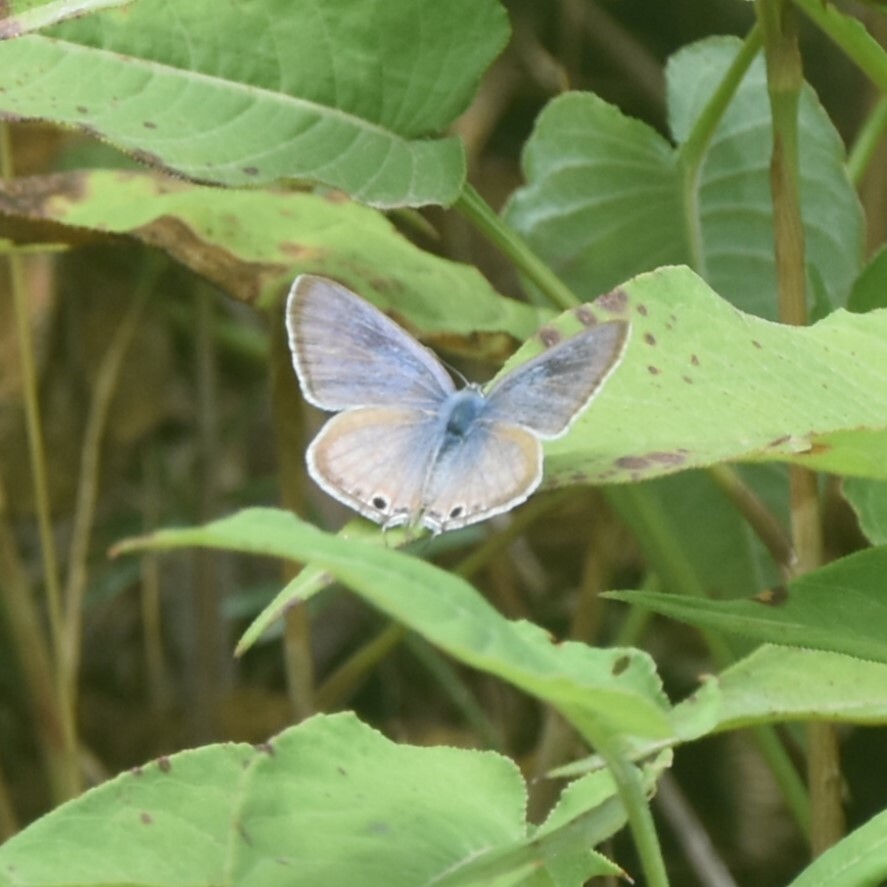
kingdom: Animalia
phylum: Arthropoda
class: Insecta
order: Lepidoptera
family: Lycaenidae
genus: Lampides
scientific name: Lampides boeticus
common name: Long-tailed blue
